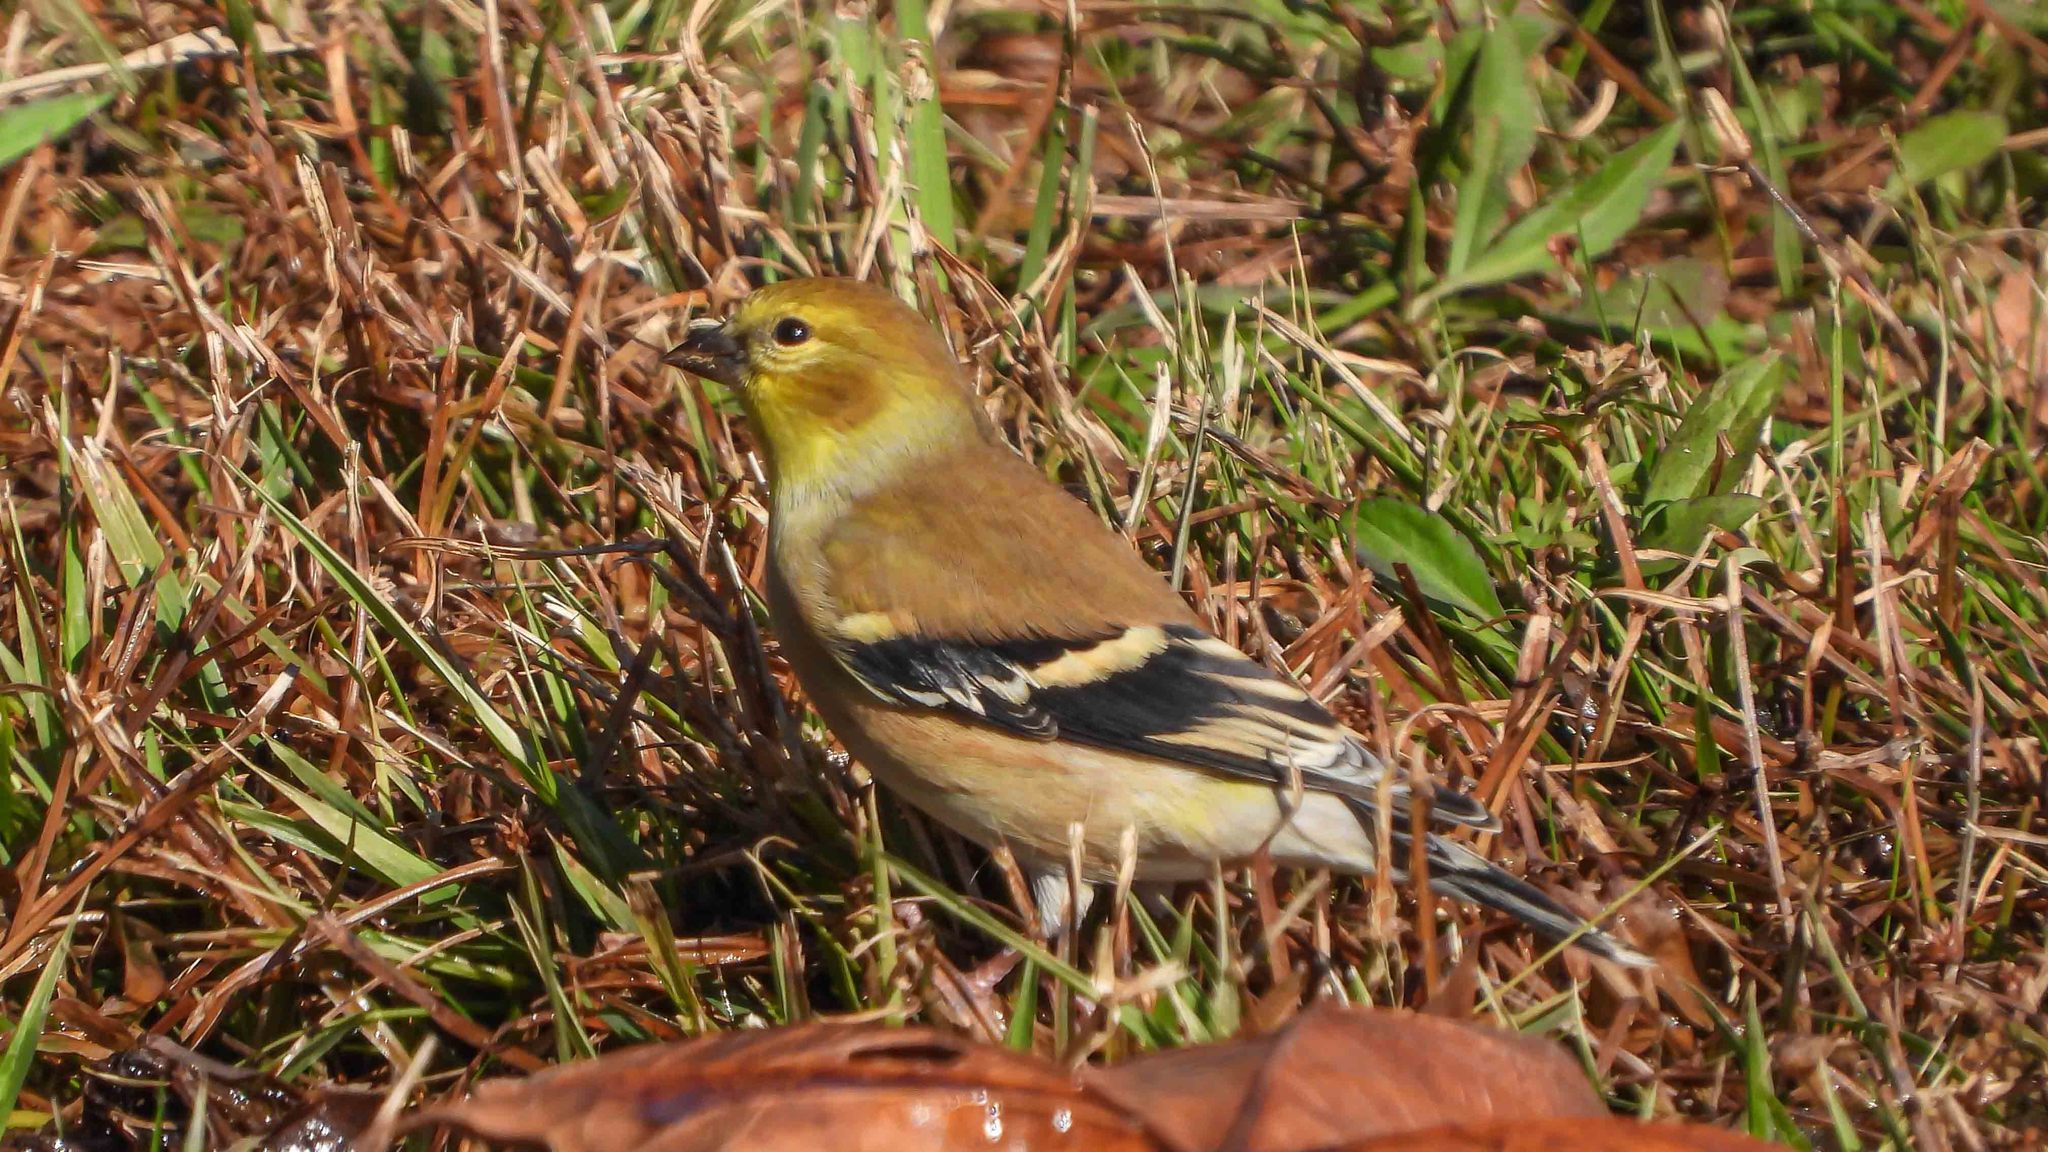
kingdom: Animalia
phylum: Chordata
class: Aves
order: Passeriformes
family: Fringillidae
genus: Spinus
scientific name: Spinus tristis
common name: American goldfinch
